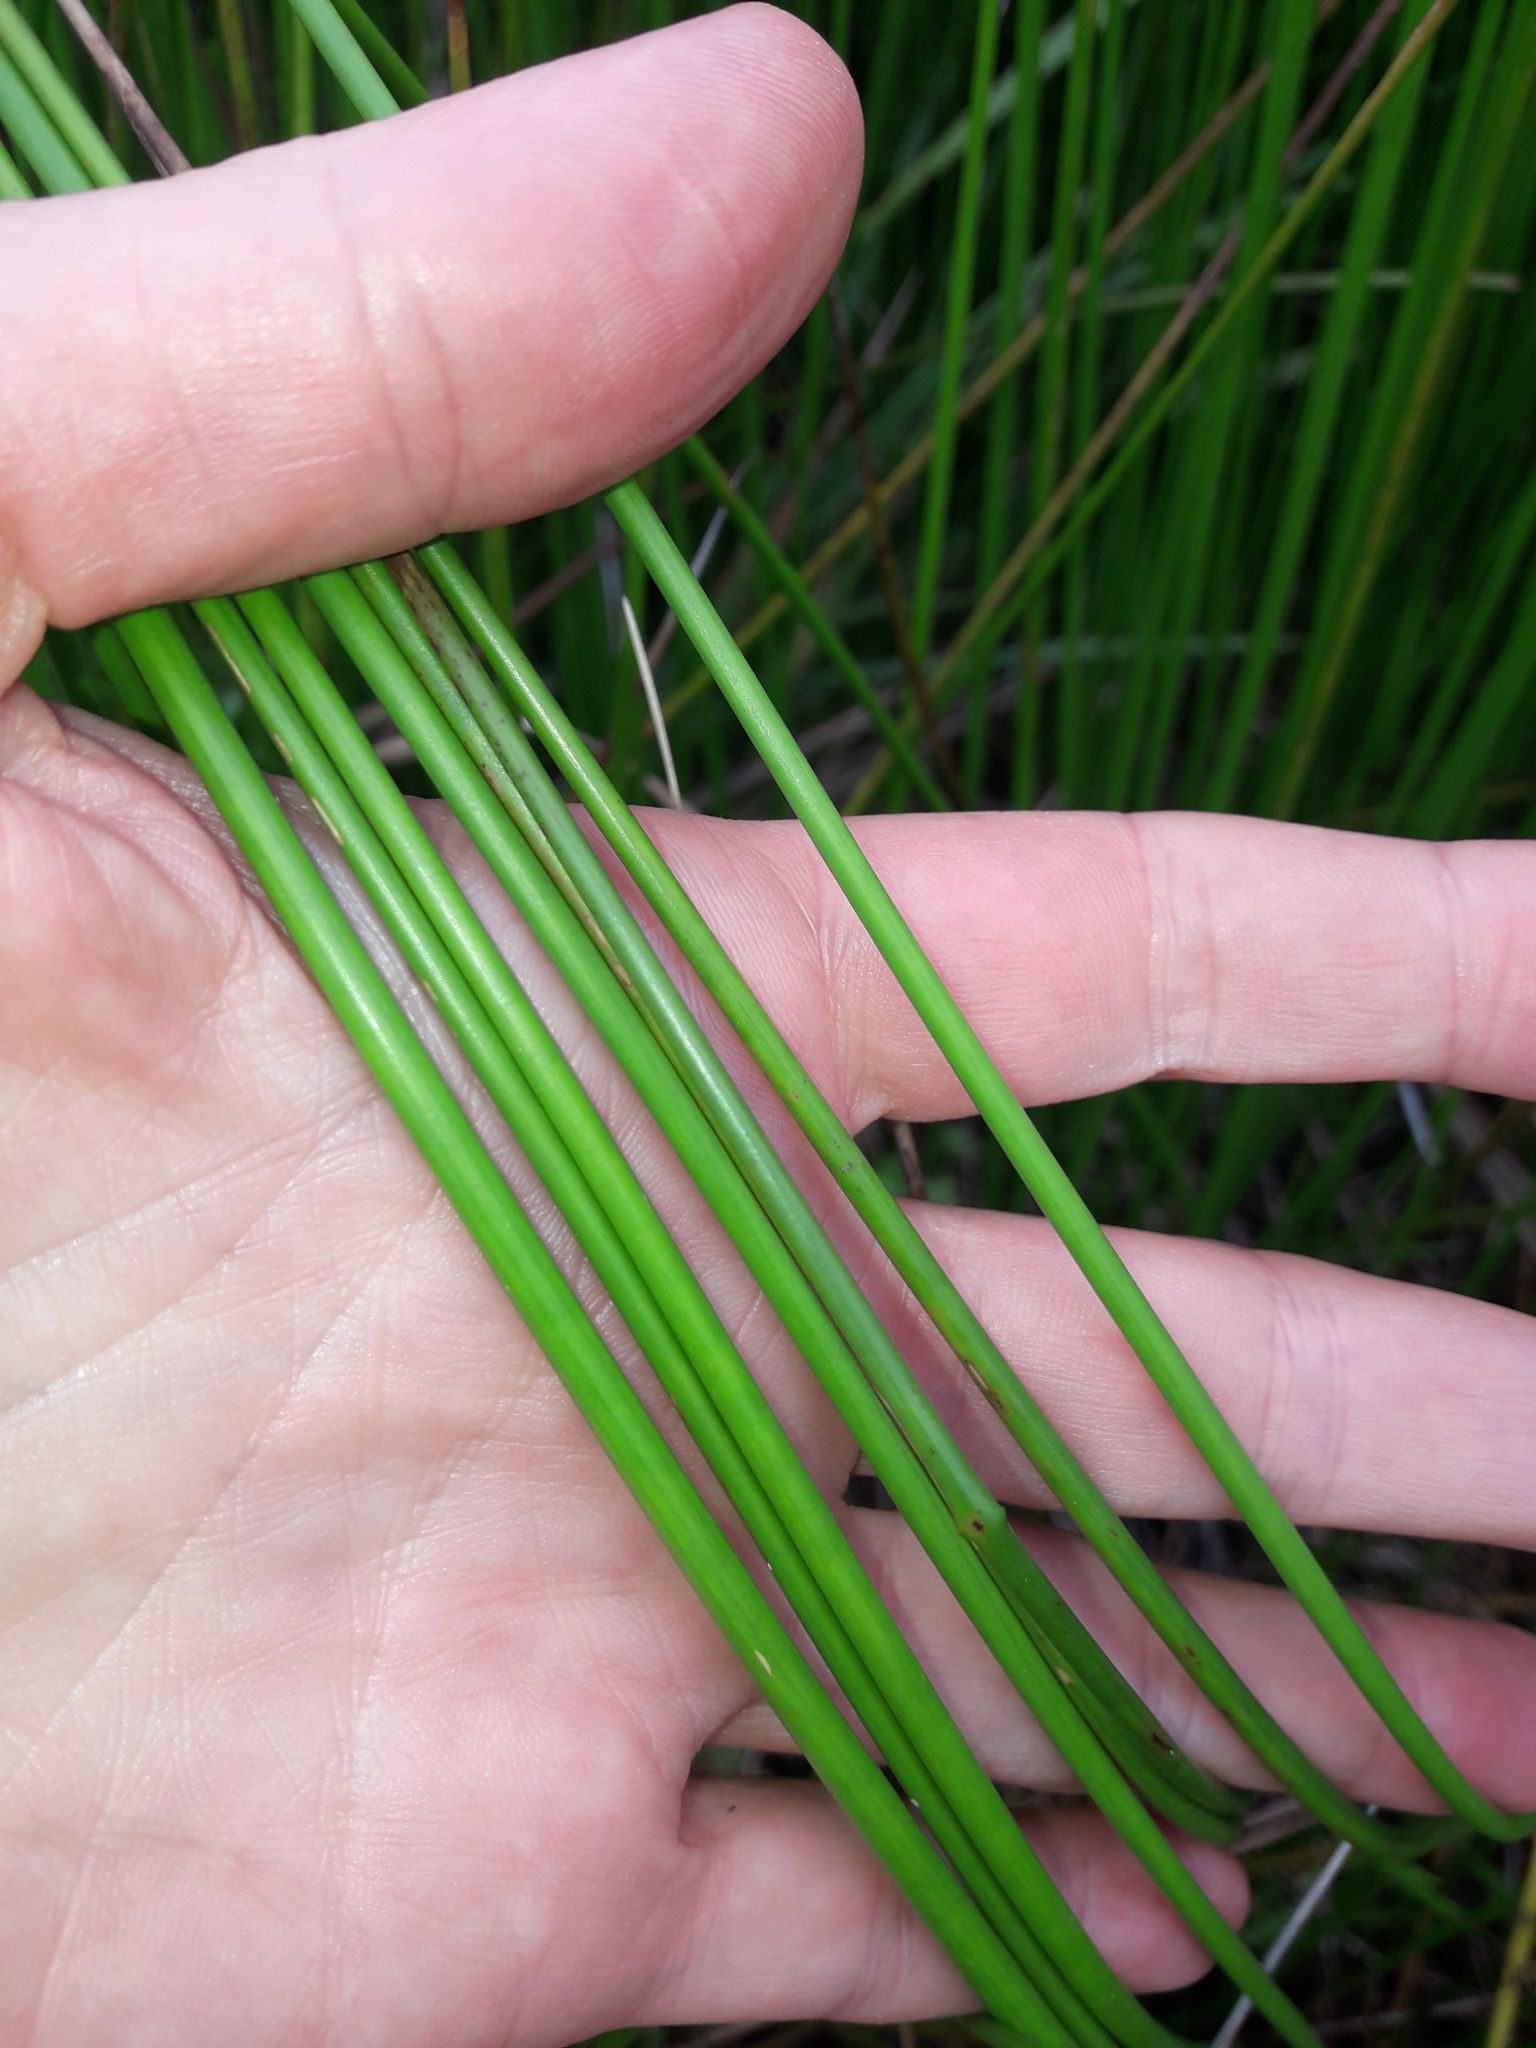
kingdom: Plantae
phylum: Tracheophyta
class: Liliopsida
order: Poales
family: Juncaceae
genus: Juncus
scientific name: Juncus subnodulosus
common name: Blunt-flowered rush
